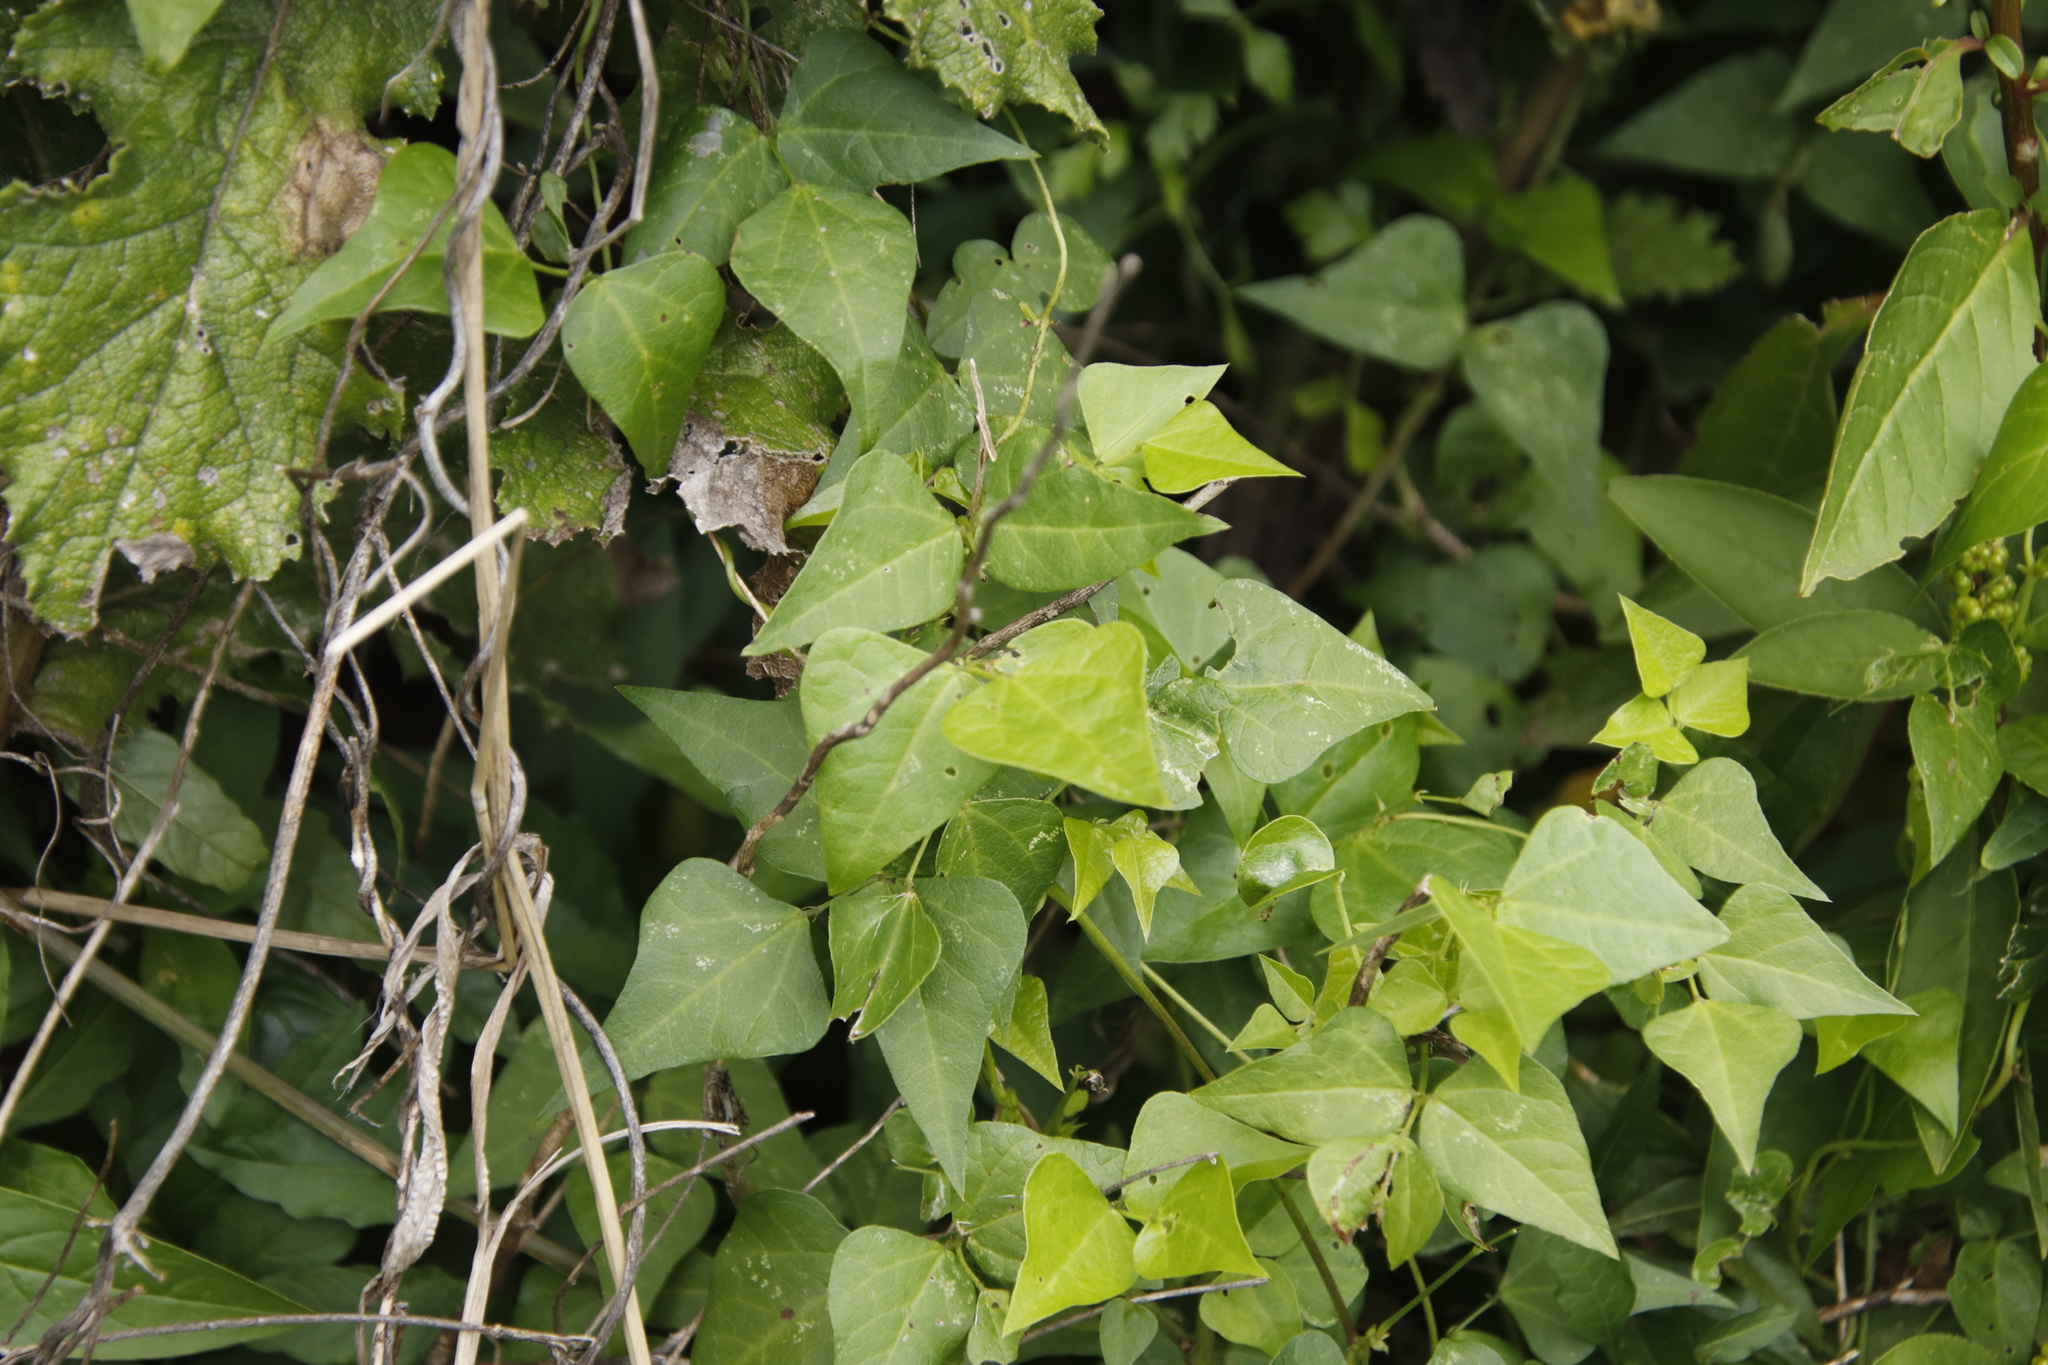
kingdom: Plantae
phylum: Tracheophyta
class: Magnoliopsida
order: Fabales
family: Fabaceae
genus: Dipogon
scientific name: Dipogon lignosus
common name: Okie bean
